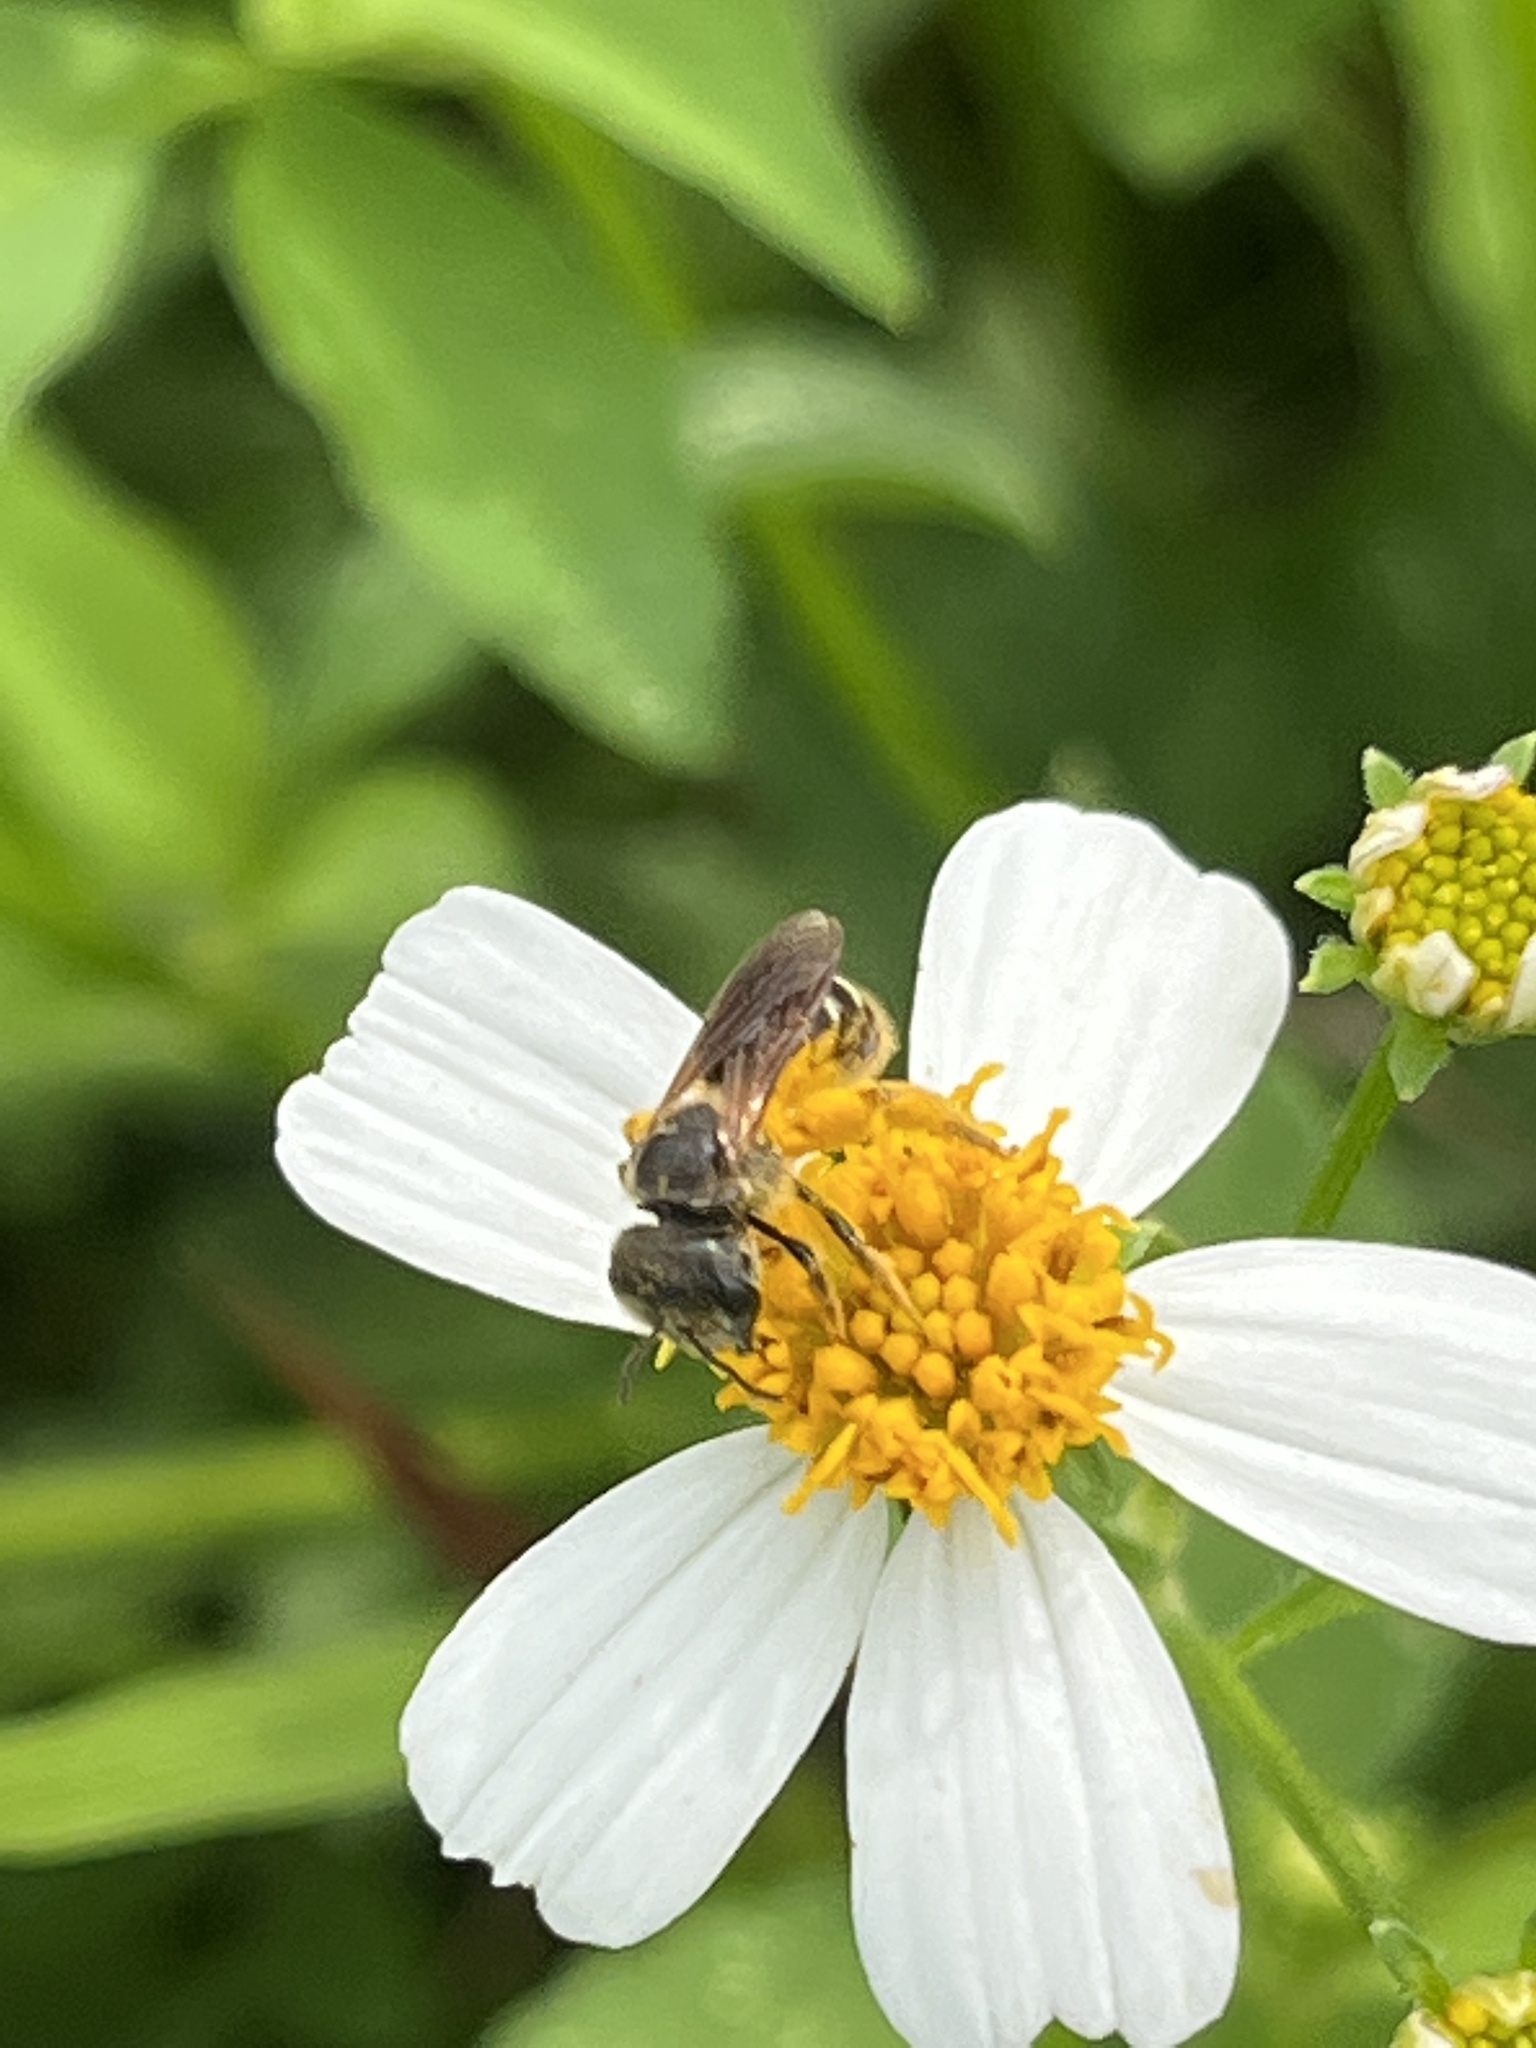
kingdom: Animalia
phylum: Arthropoda
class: Insecta
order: Hymenoptera
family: Halictidae
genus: Halictus
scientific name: Halictus poeyi
